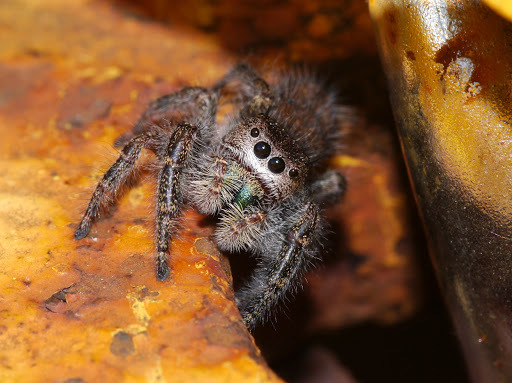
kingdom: Animalia
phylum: Arthropoda
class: Arachnida
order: Araneae
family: Salticidae
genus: Phidippus
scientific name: Phidippus princeps
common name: Grayish jumping spider
